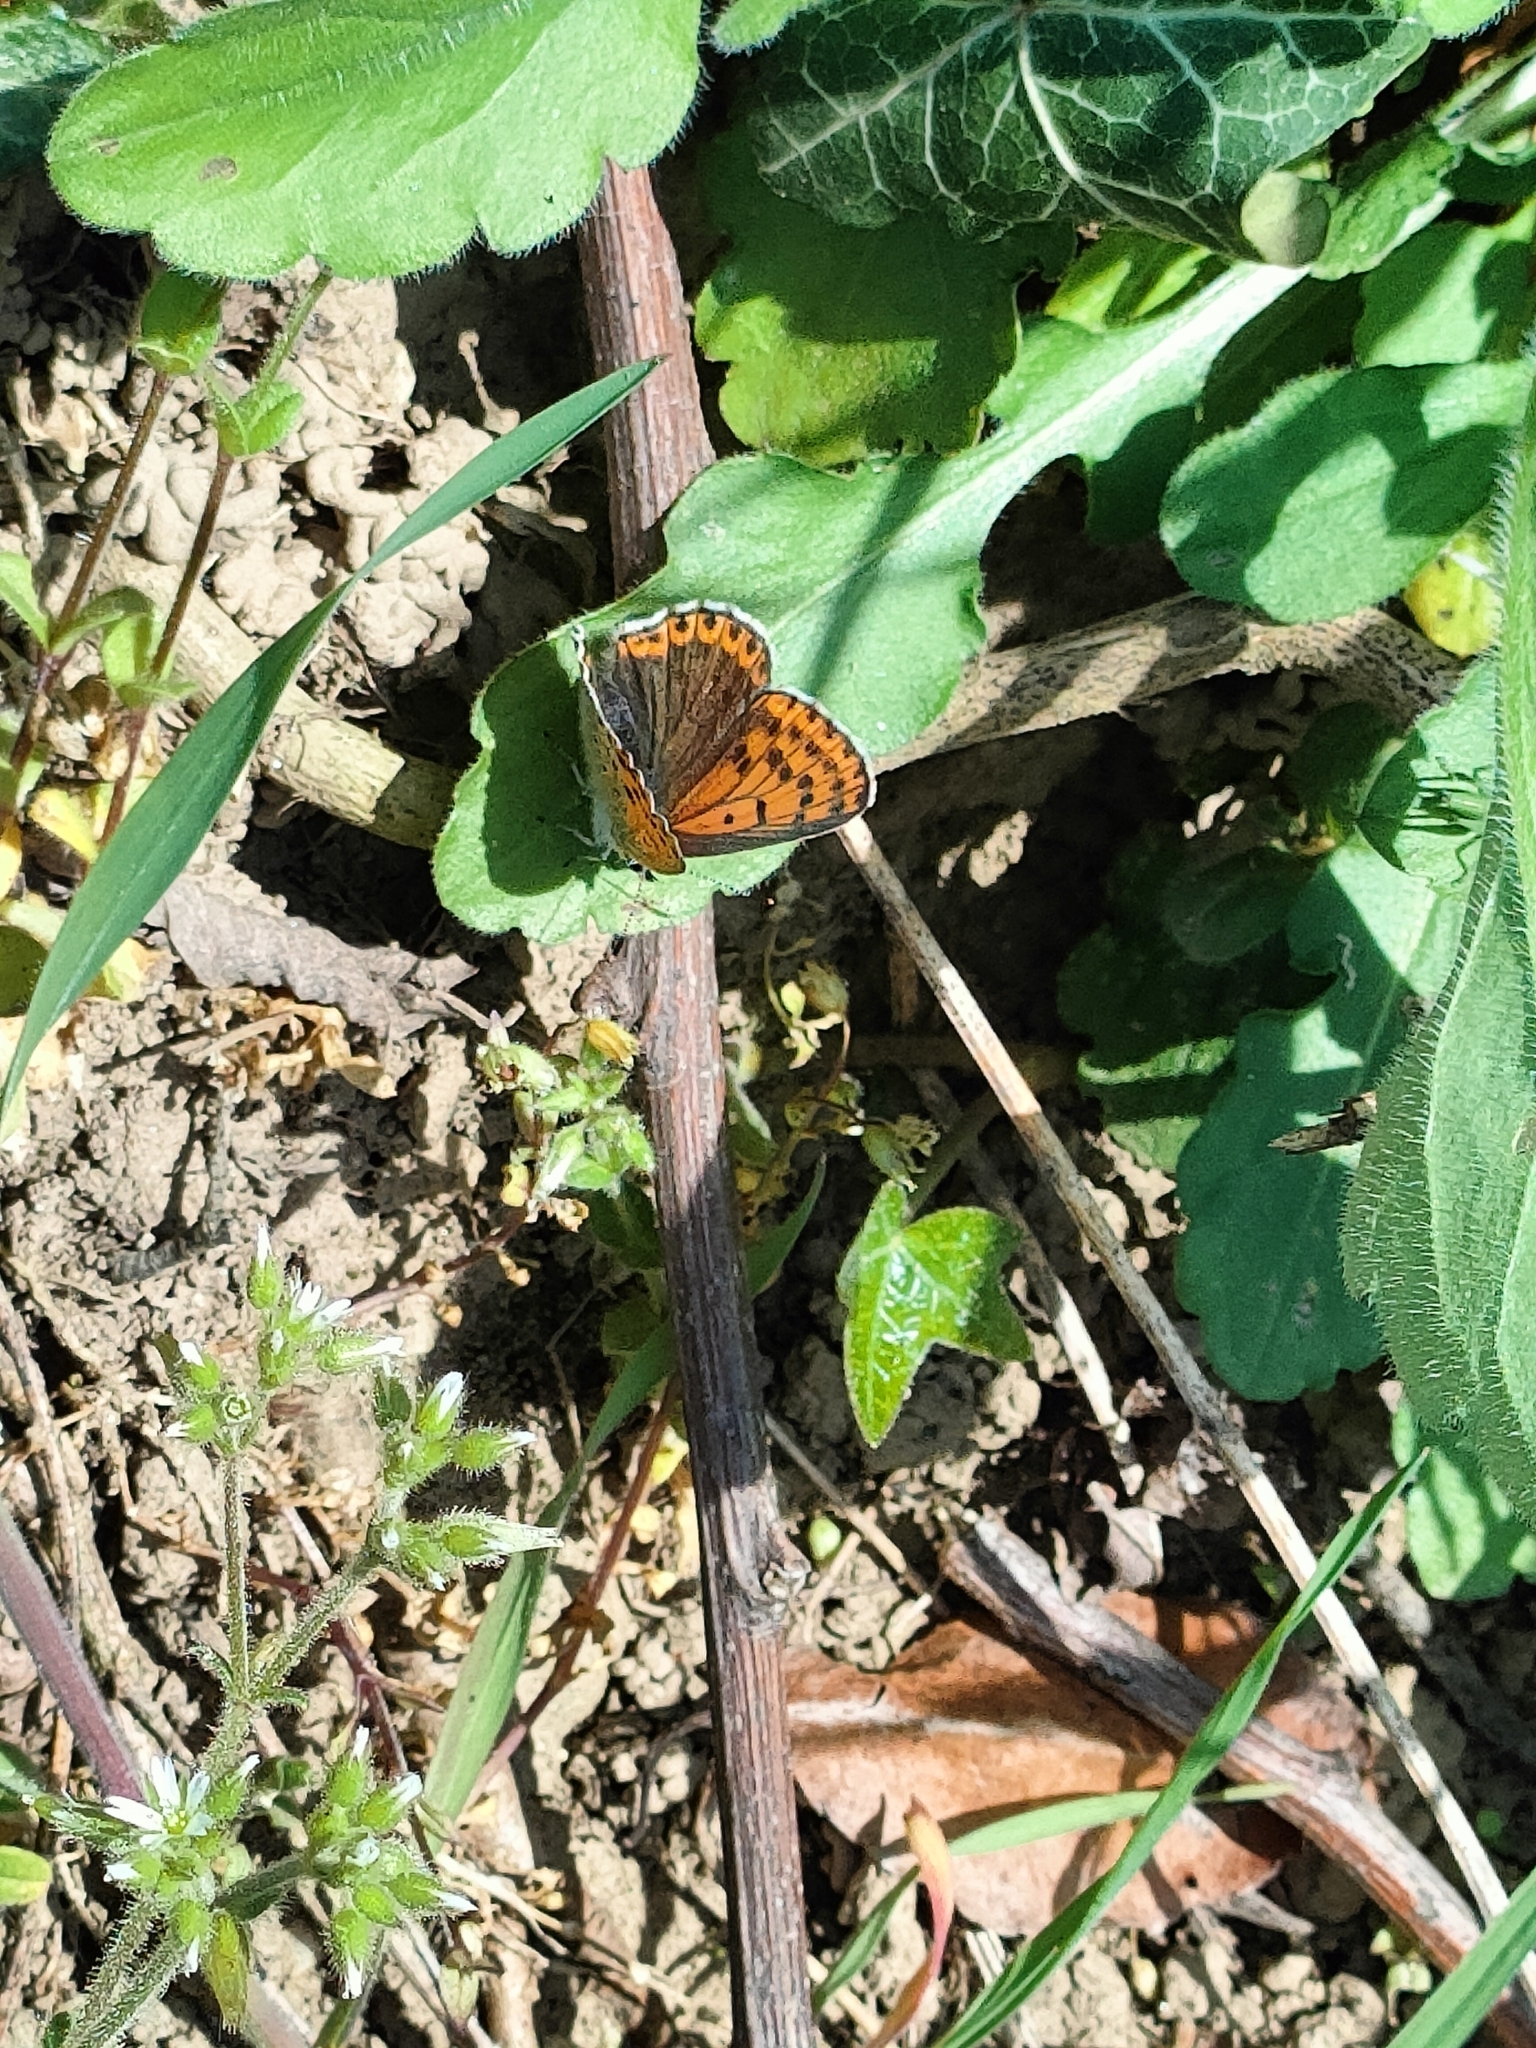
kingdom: Animalia
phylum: Arthropoda
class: Insecta
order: Lepidoptera
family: Lycaenidae
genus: Loweia
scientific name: Loweia tityrus
